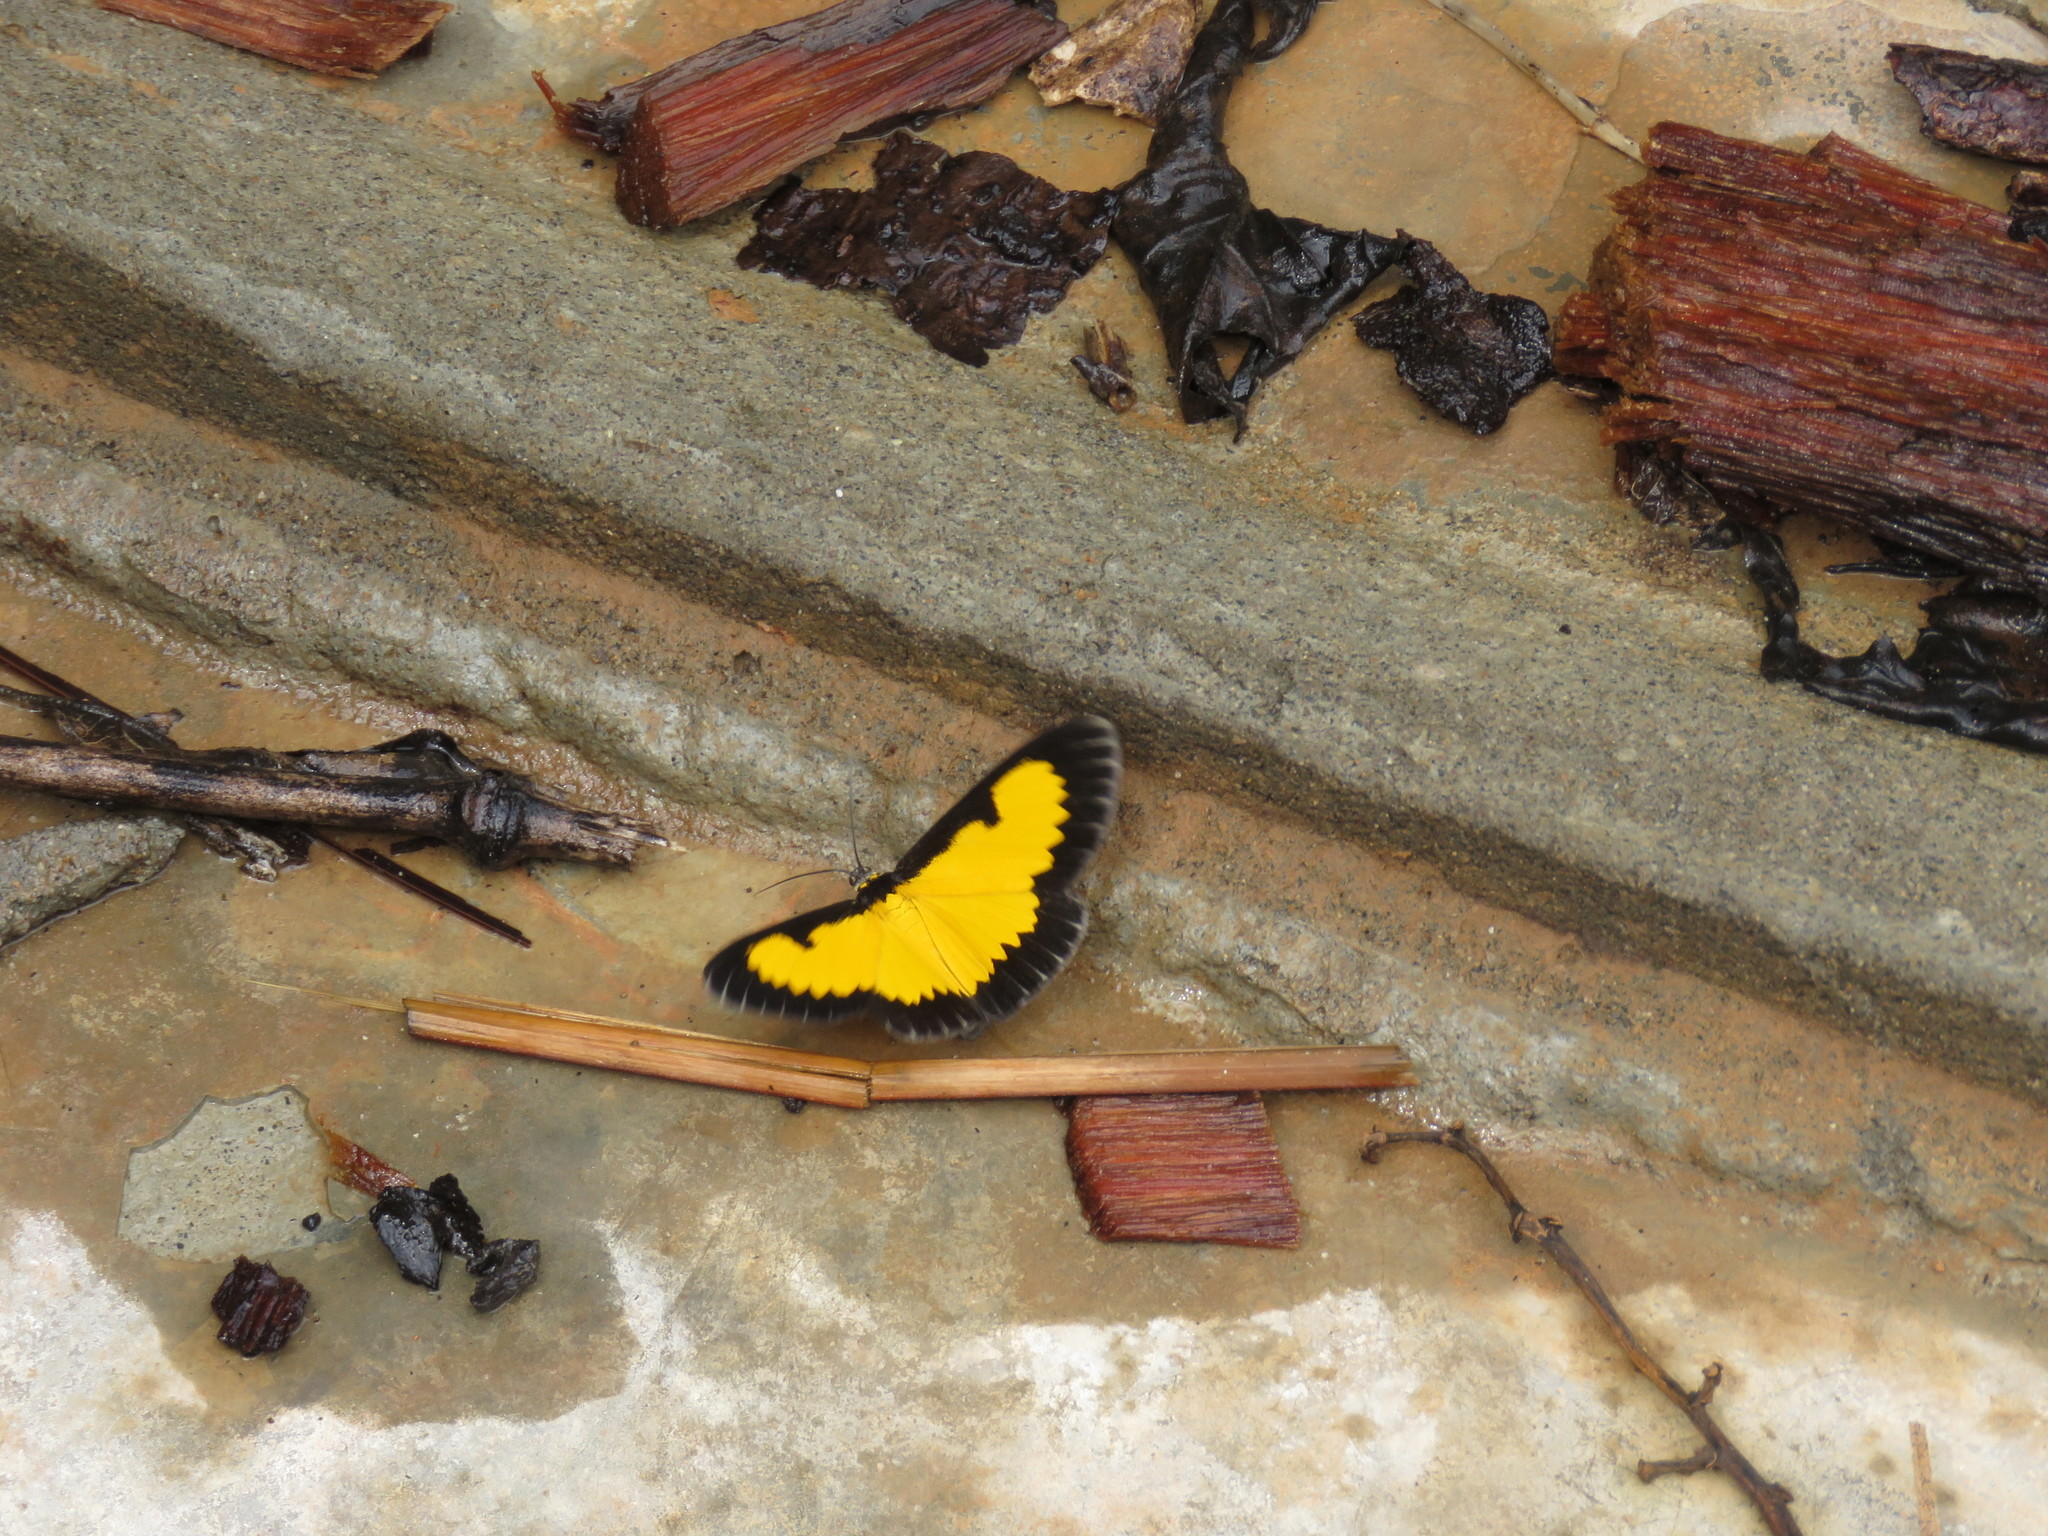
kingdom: Animalia
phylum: Arthropoda
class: Insecta
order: Lepidoptera
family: Geometridae
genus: Xanthyris
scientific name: Xanthyris flaveolata
